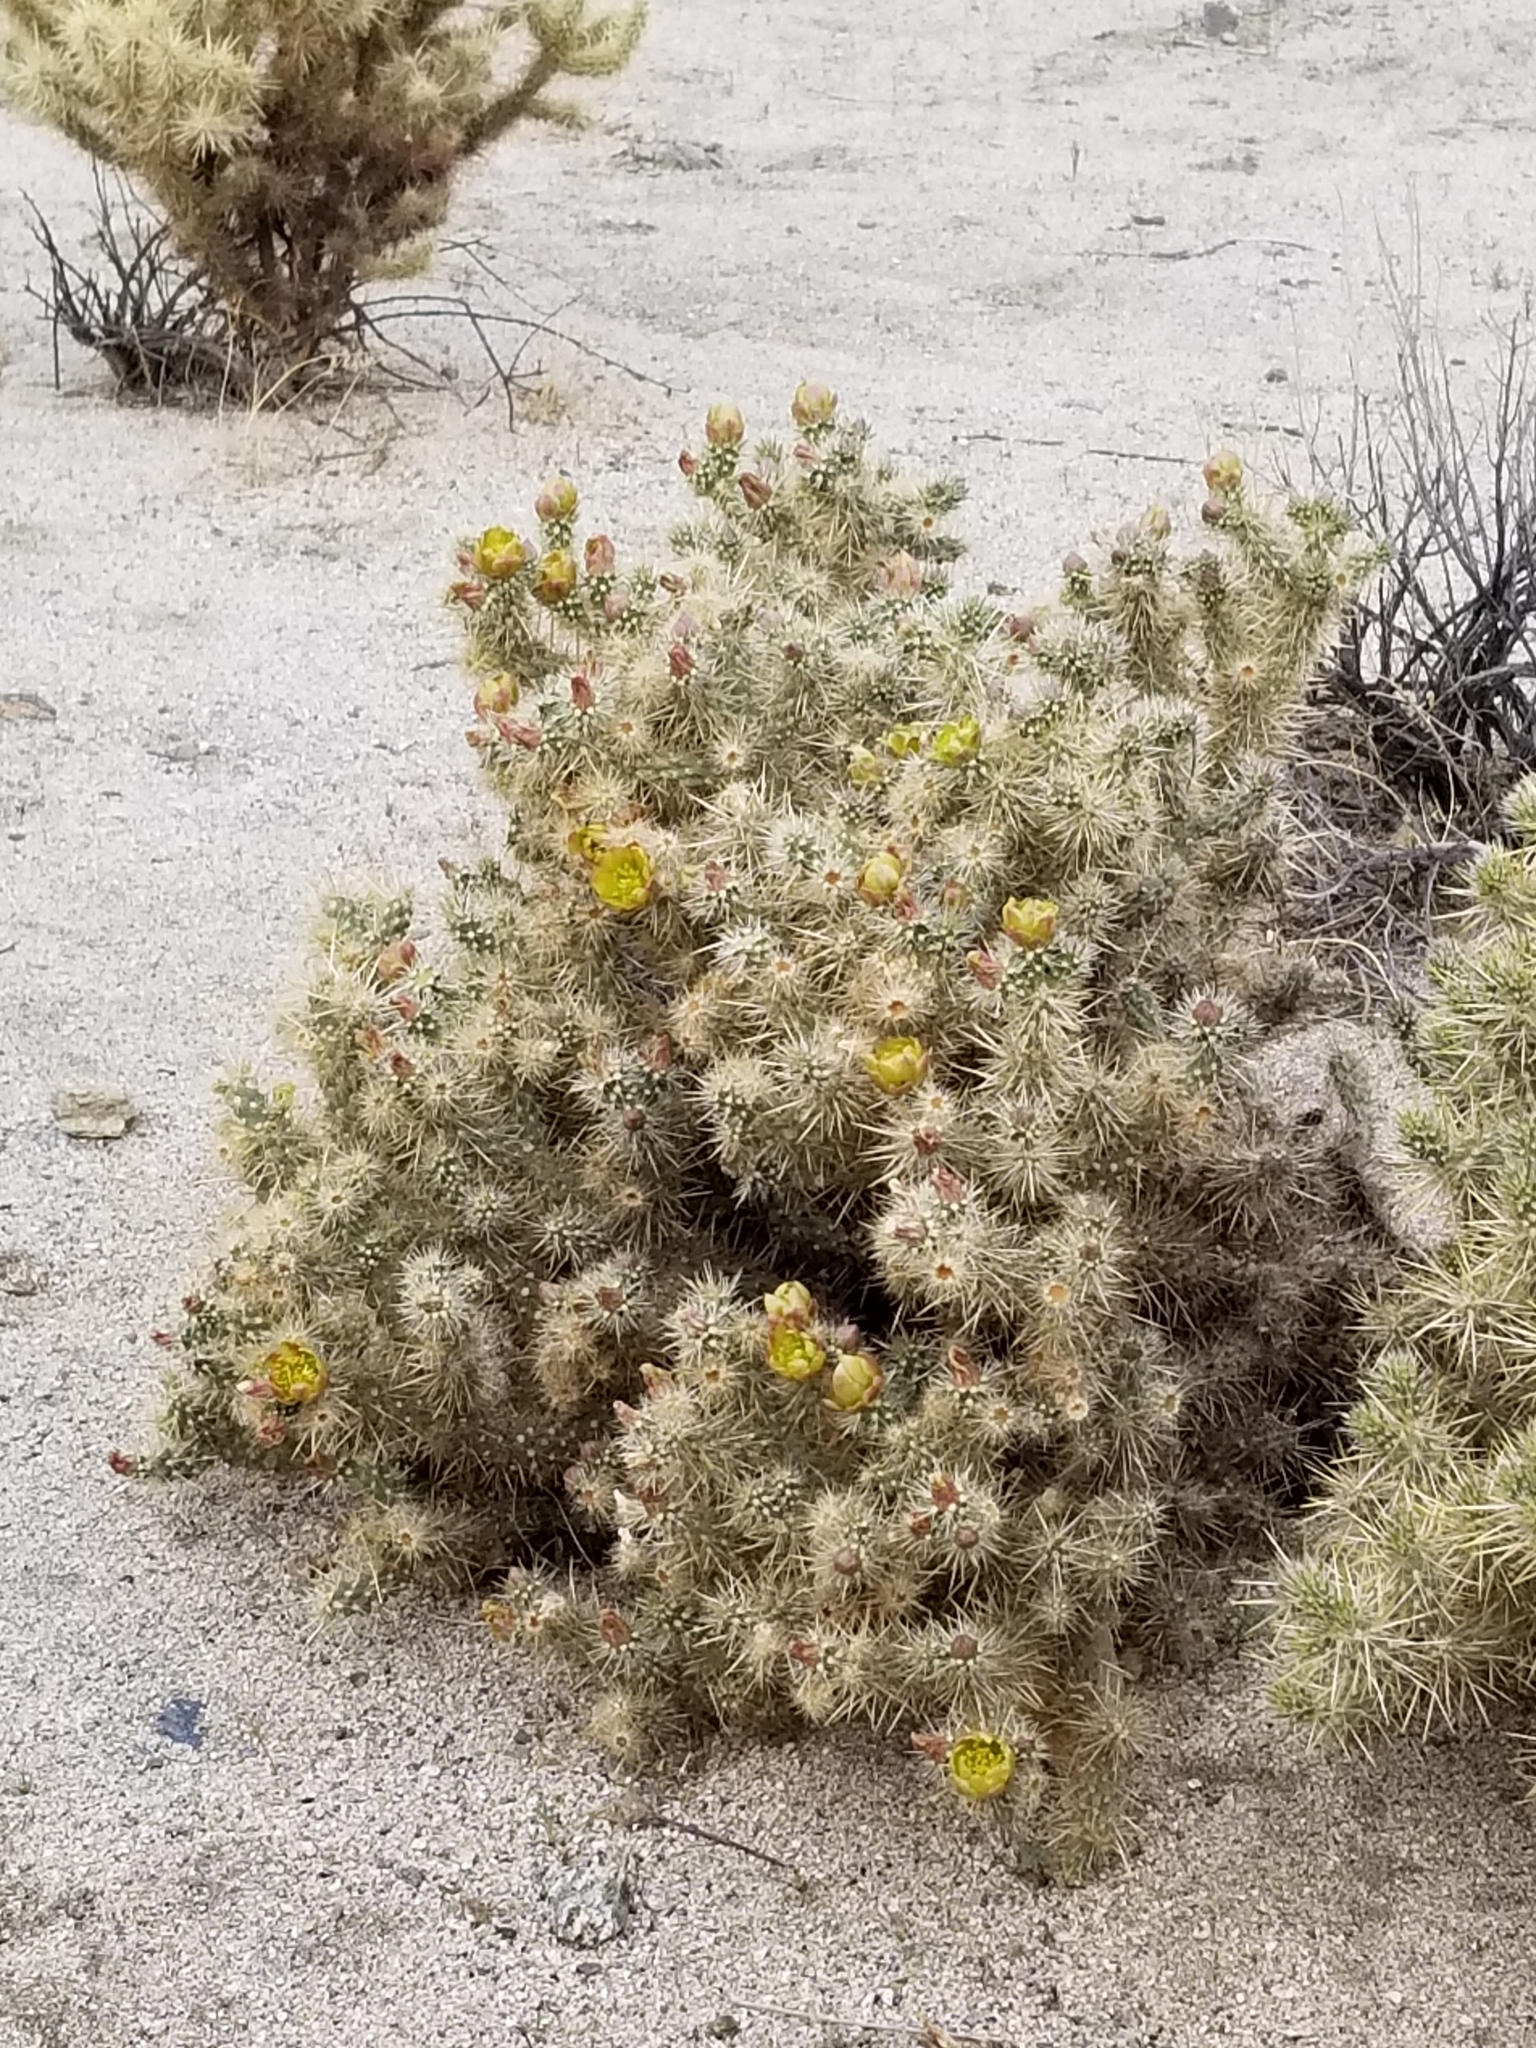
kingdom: Plantae
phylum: Tracheophyta
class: Magnoliopsida
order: Caryophyllales
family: Cactaceae
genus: Cylindropuntia
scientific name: Cylindropuntia echinocarpa
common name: Ground cholla
